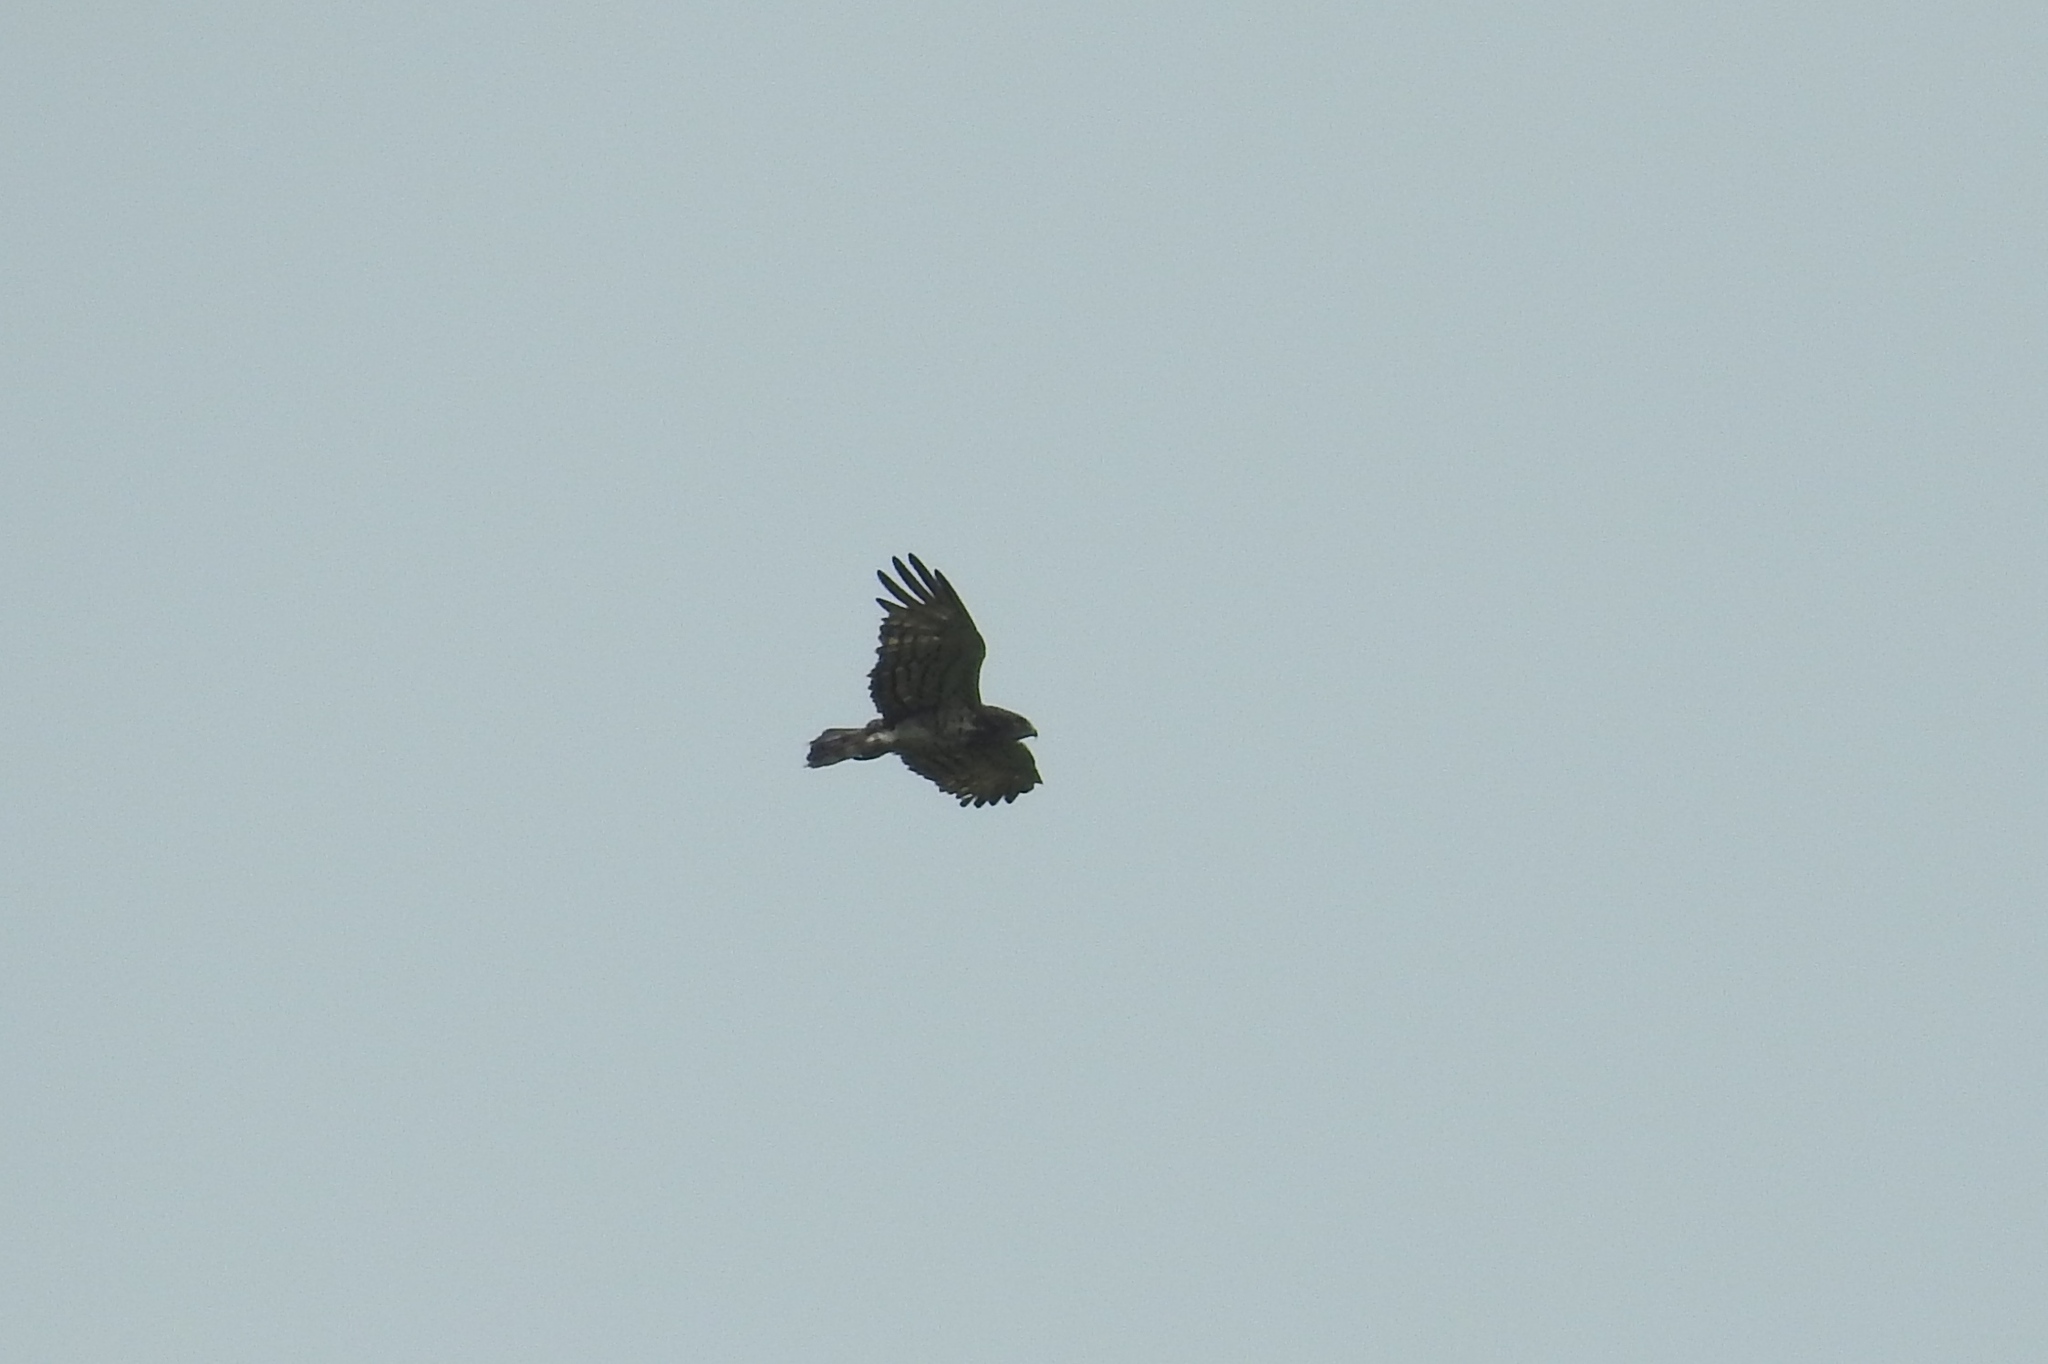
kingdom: Animalia
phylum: Chordata
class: Aves
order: Accipitriformes
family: Accipitridae
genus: Circaetus
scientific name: Circaetus gallicus
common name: Short-toed snake eagle
